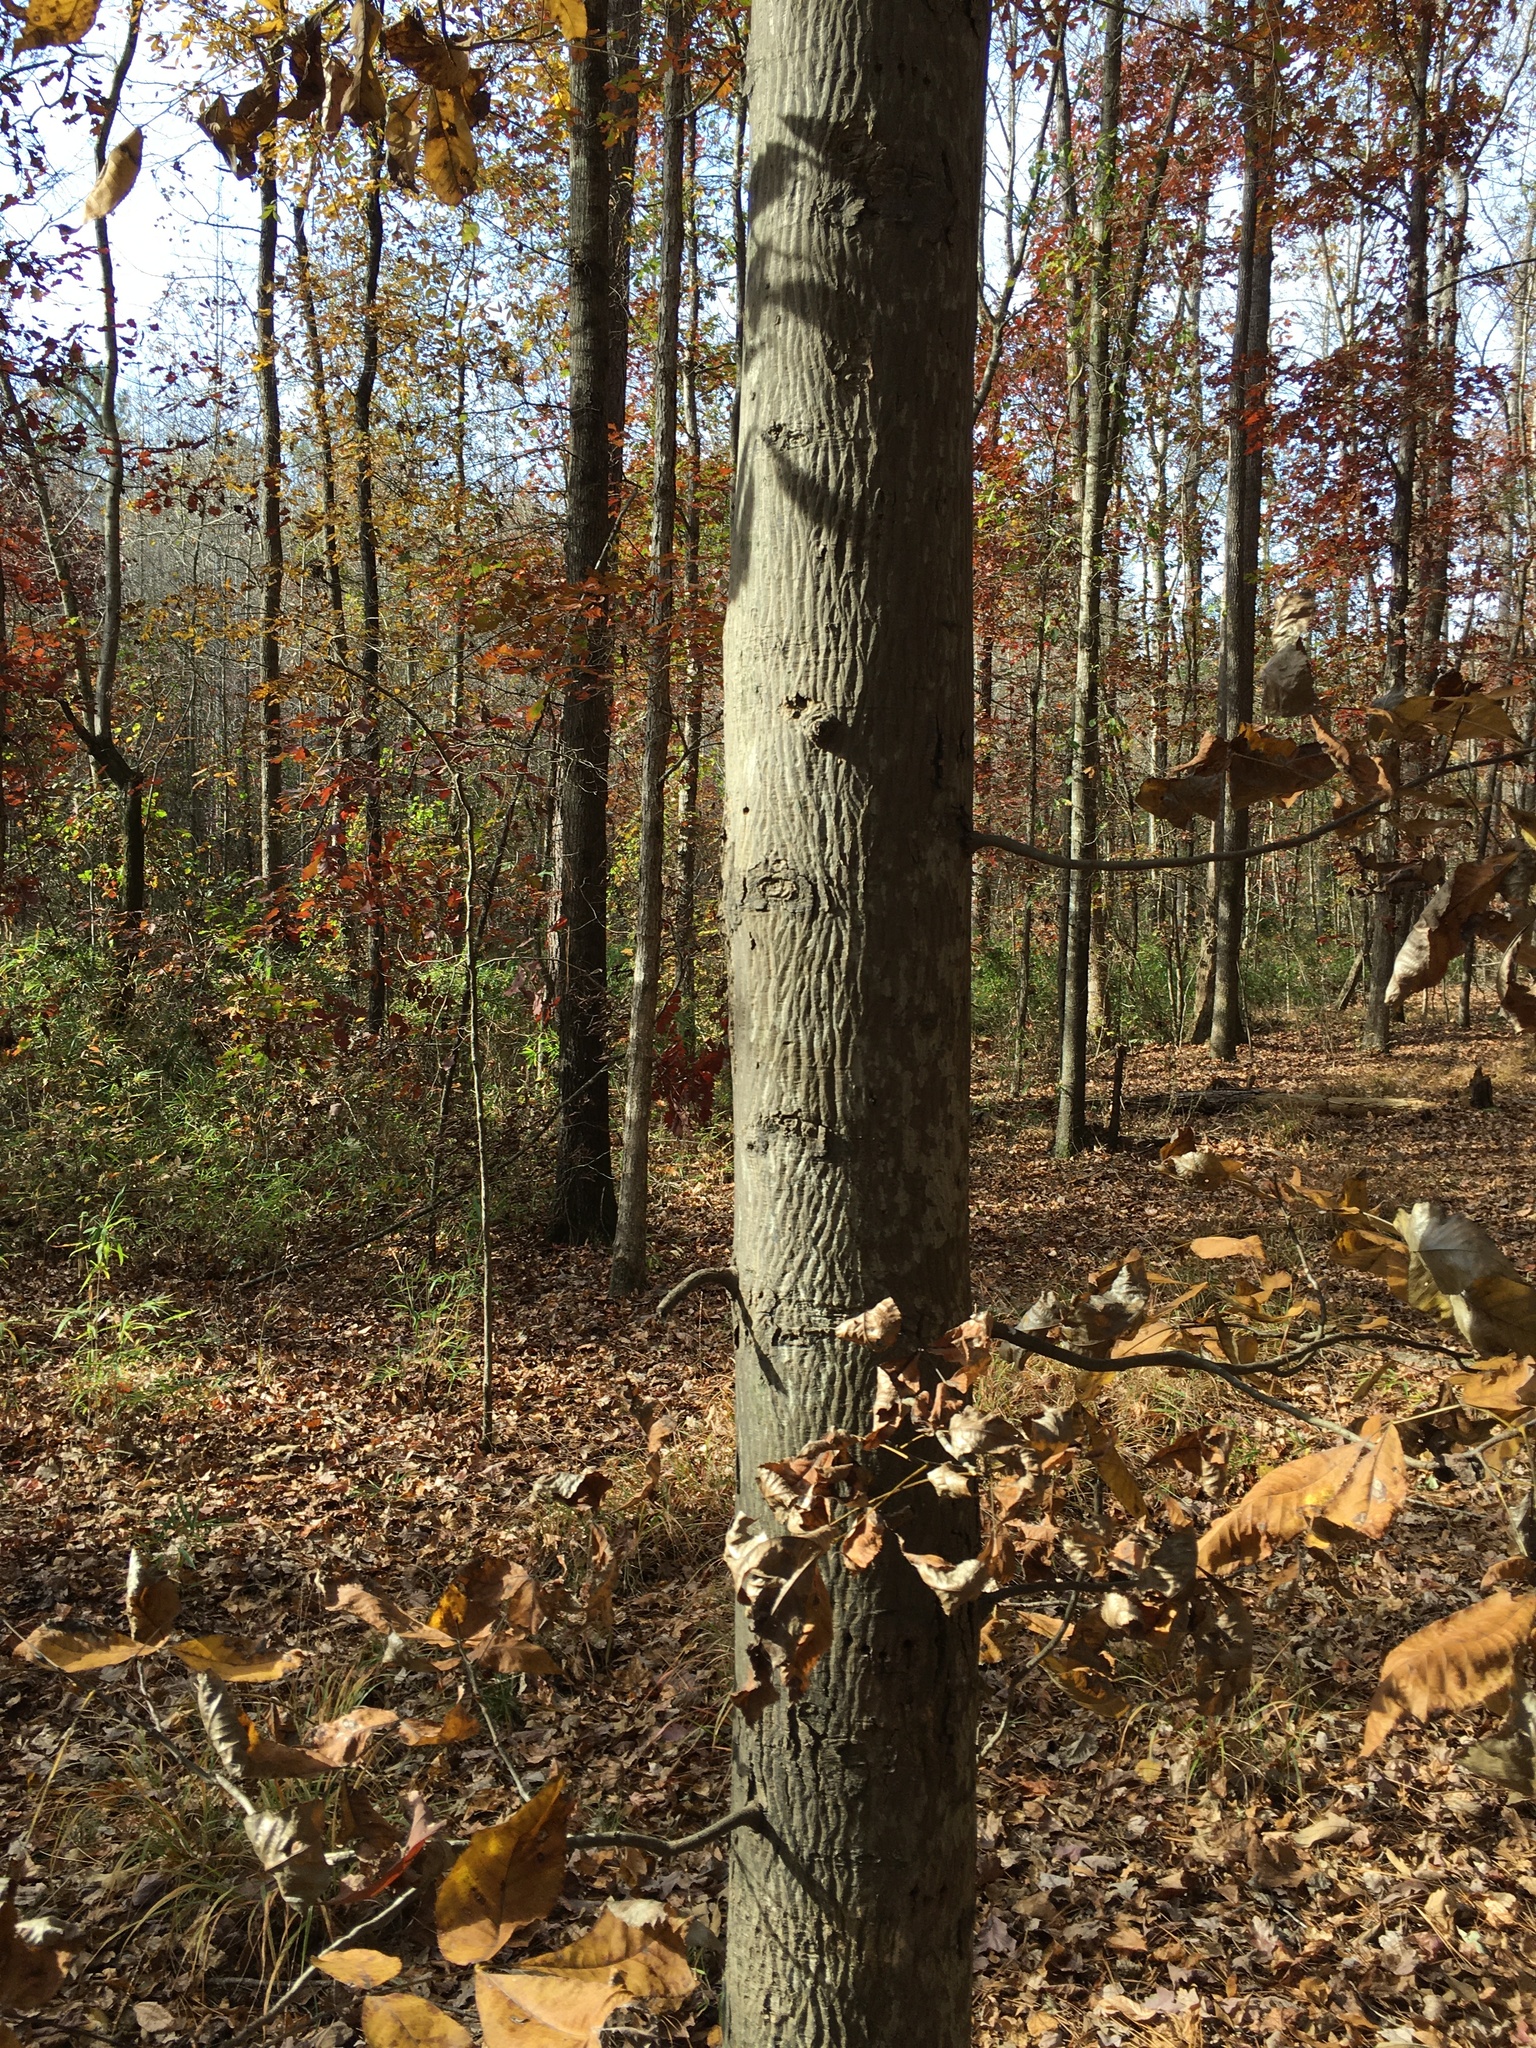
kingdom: Plantae
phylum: Tracheophyta
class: Magnoliopsida
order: Fagales
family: Juglandaceae
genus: Carya
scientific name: Carya glabra
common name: Pignut hickory
